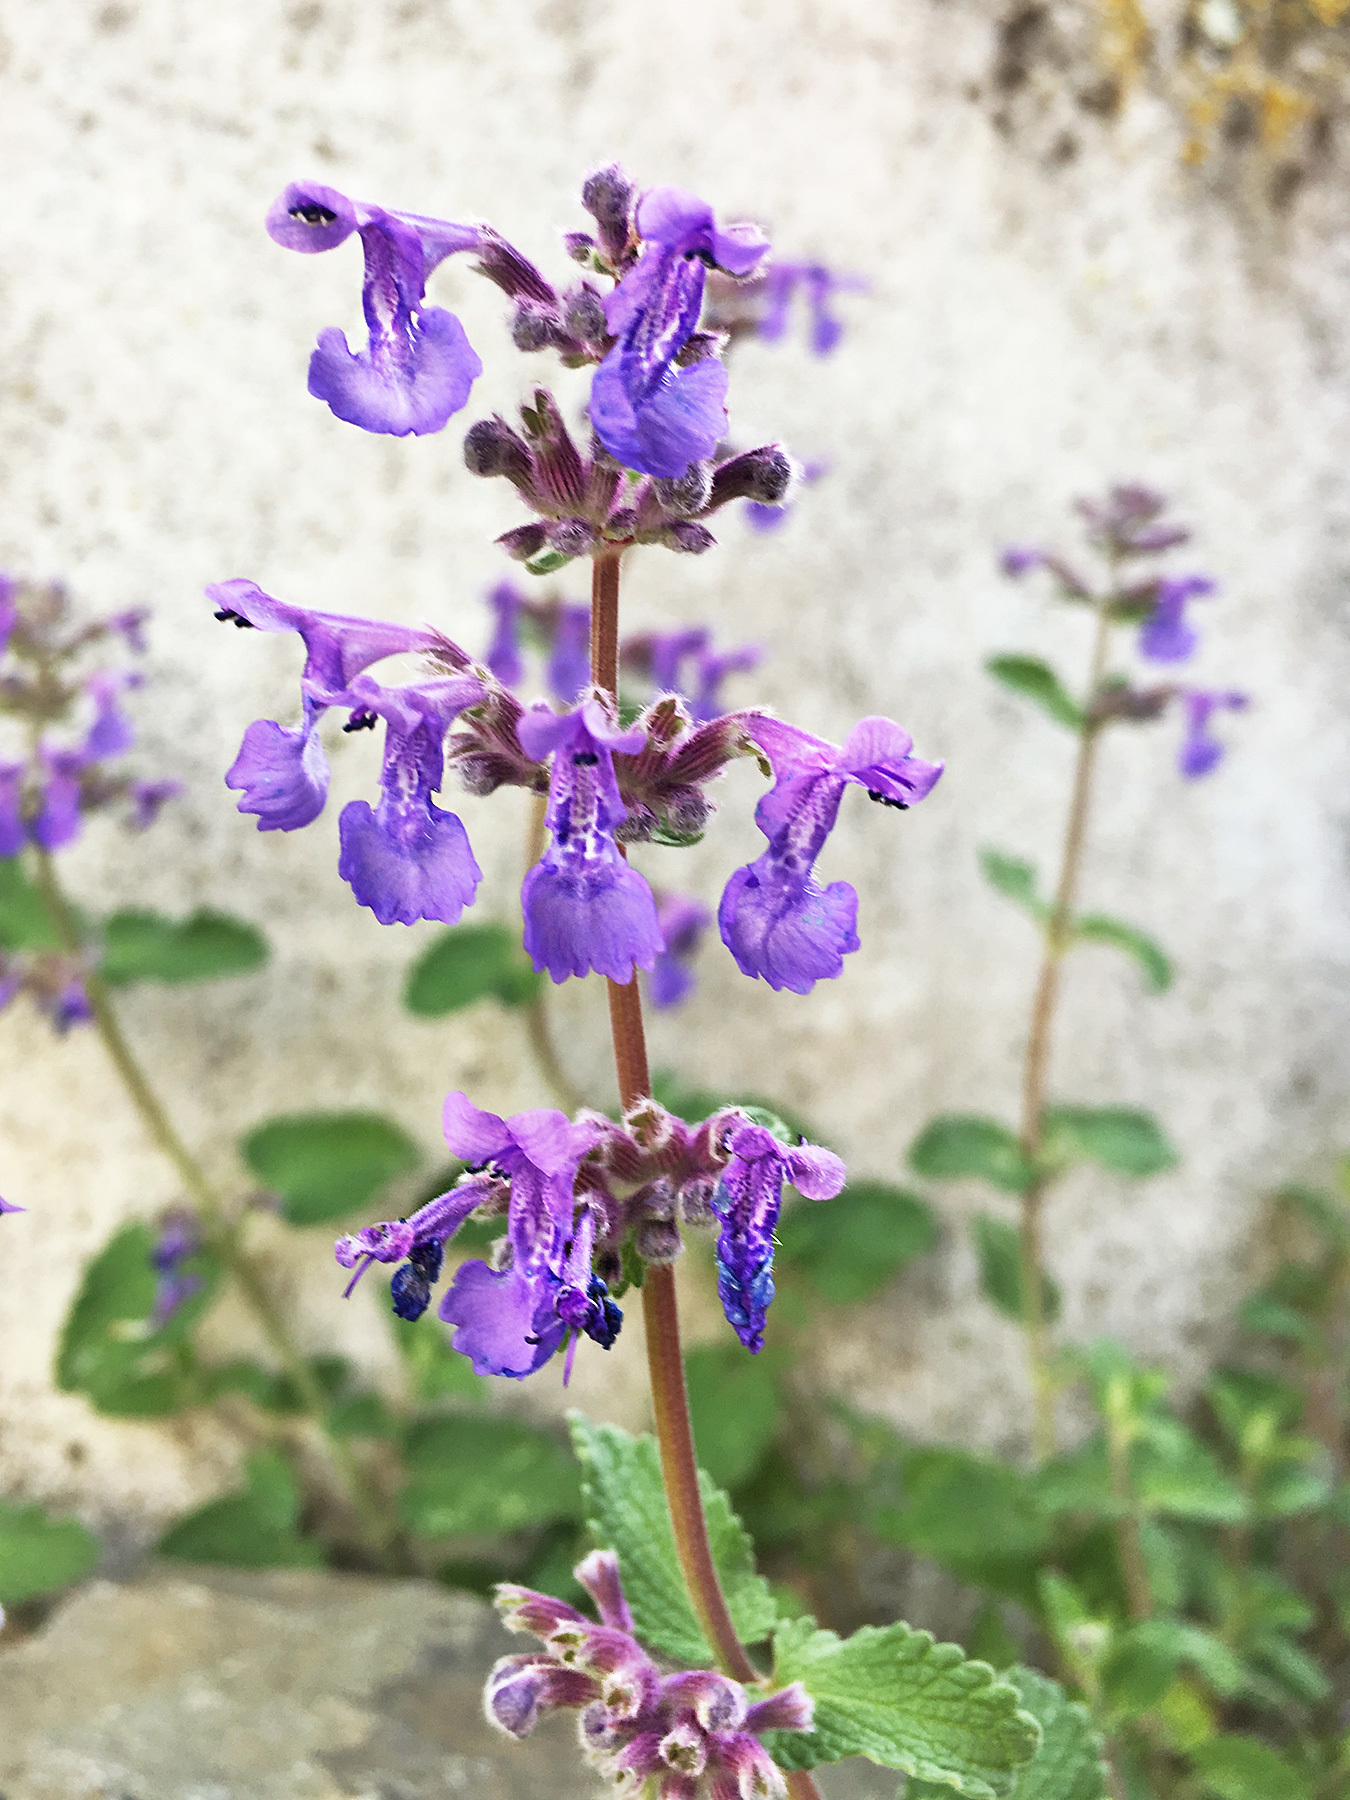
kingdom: Plantae
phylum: Tracheophyta
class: Magnoliopsida
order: Lamiales
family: Lamiaceae
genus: Nepeta
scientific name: Nepeta racemosa
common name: Raceme catnip
